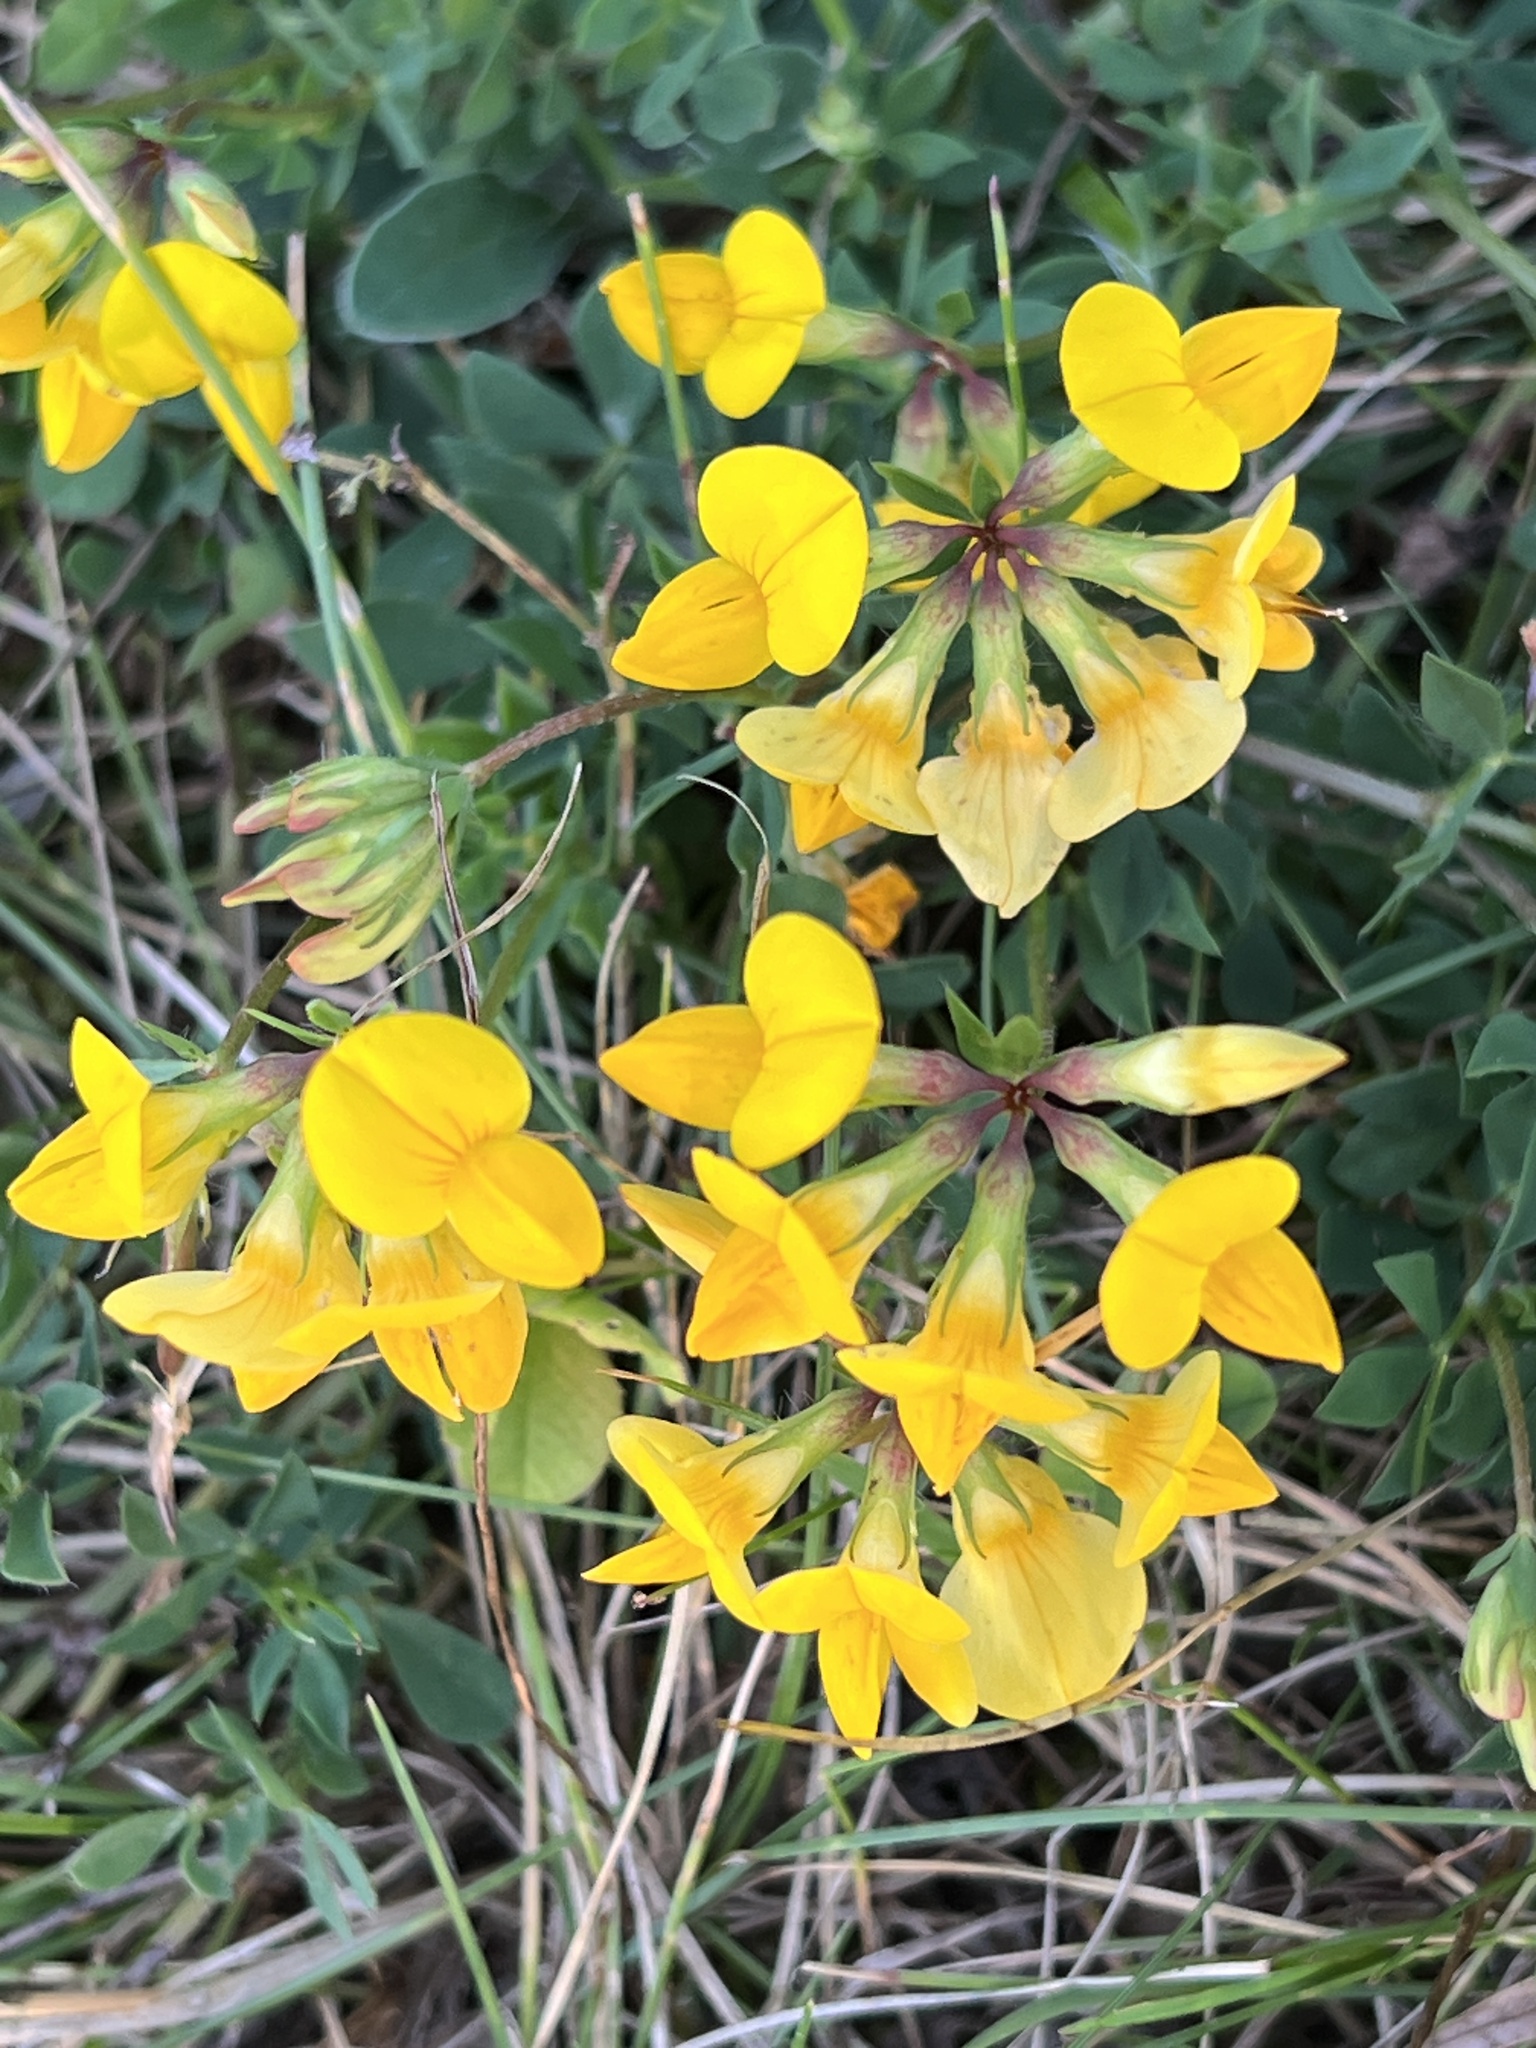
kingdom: Plantae
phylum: Tracheophyta
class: Magnoliopsida
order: Fabales
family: Fabaceae
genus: Lotus
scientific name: Lotus corniculatus
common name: Common bird's-foot-trefoil
